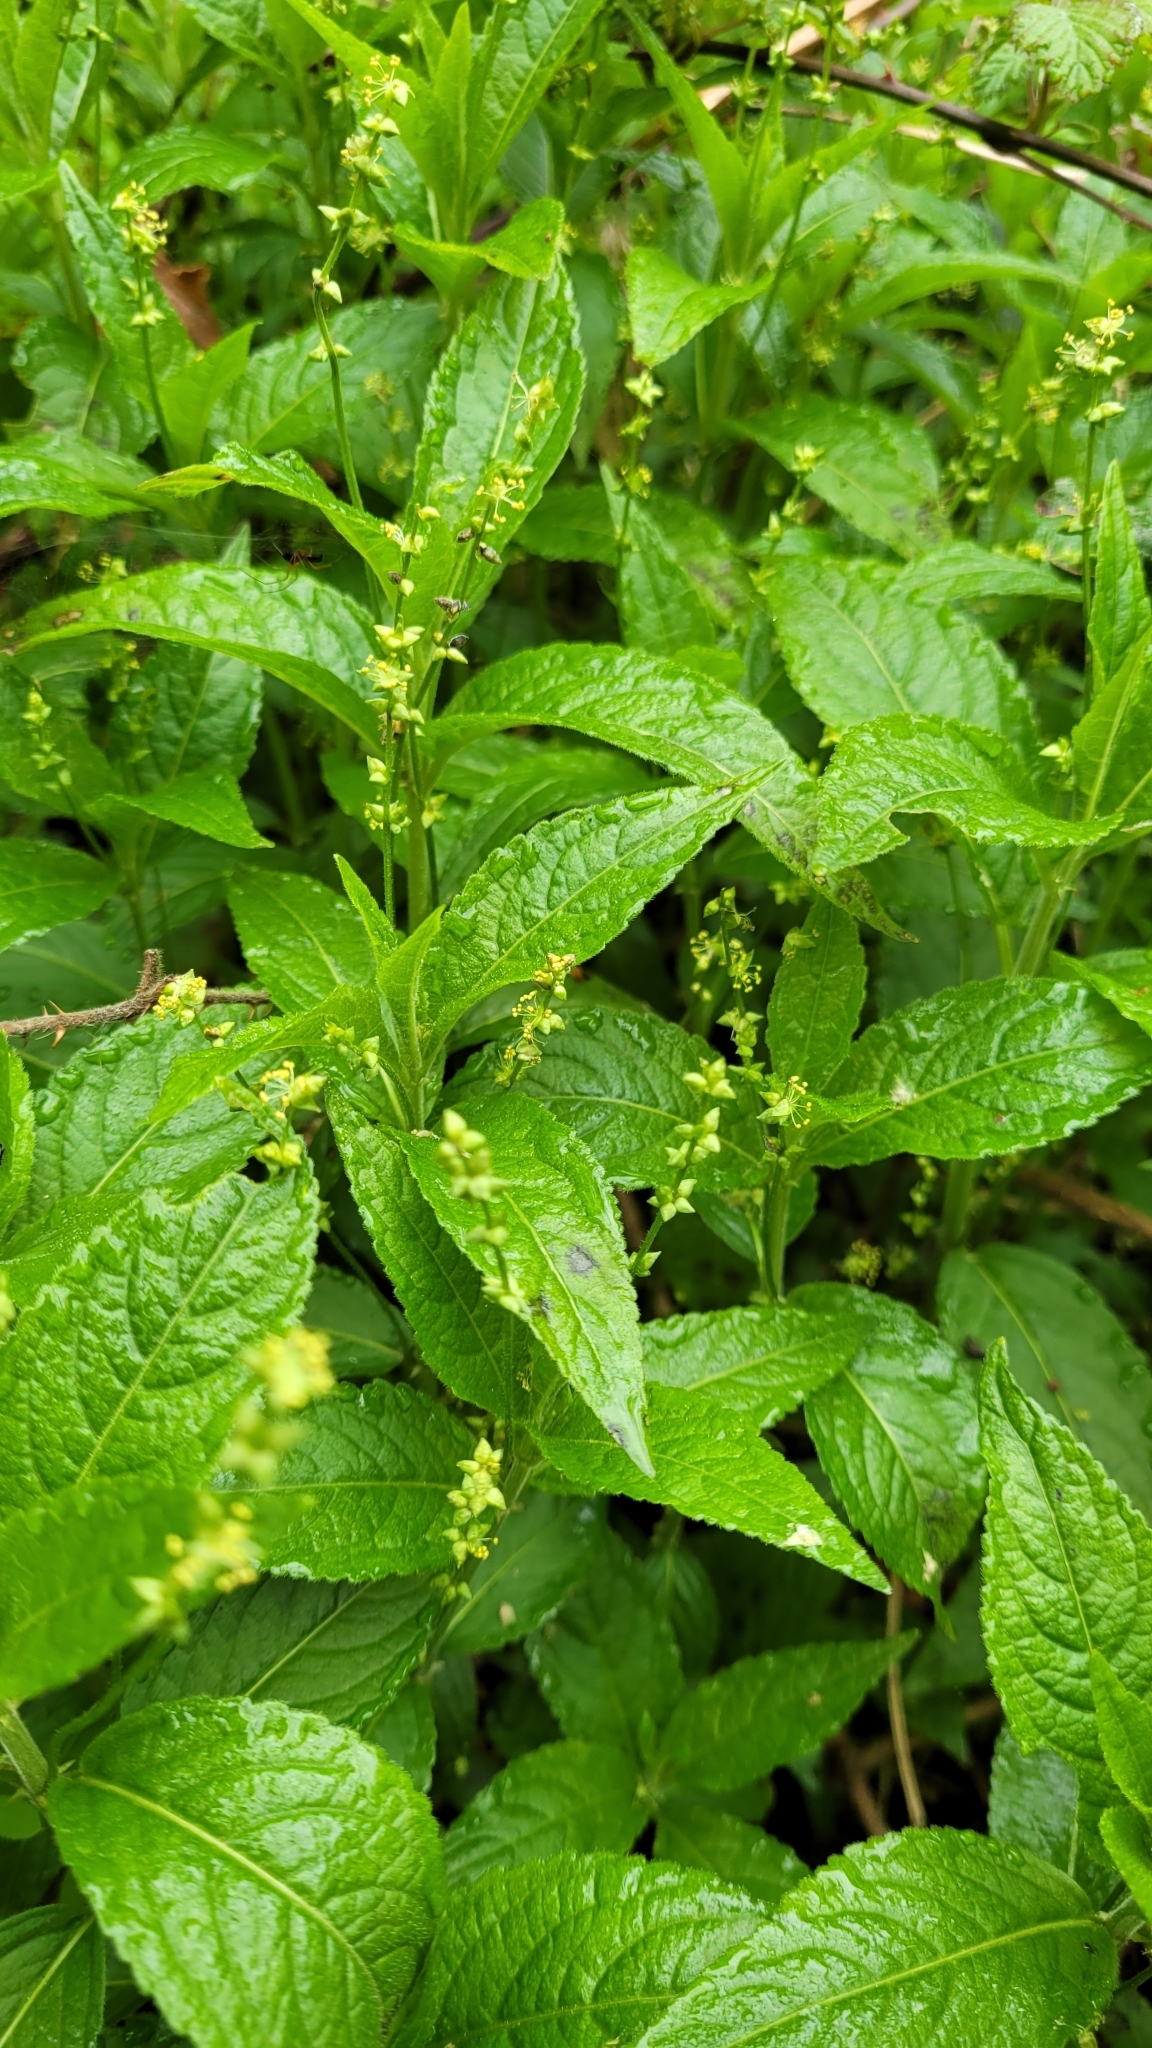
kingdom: Plantae
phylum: Tracheophyta
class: Magnoliopsida
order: Malpighiales
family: Euphorbiaceae
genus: Mercurialis
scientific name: Mercurialis perennis
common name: Dog mercury
